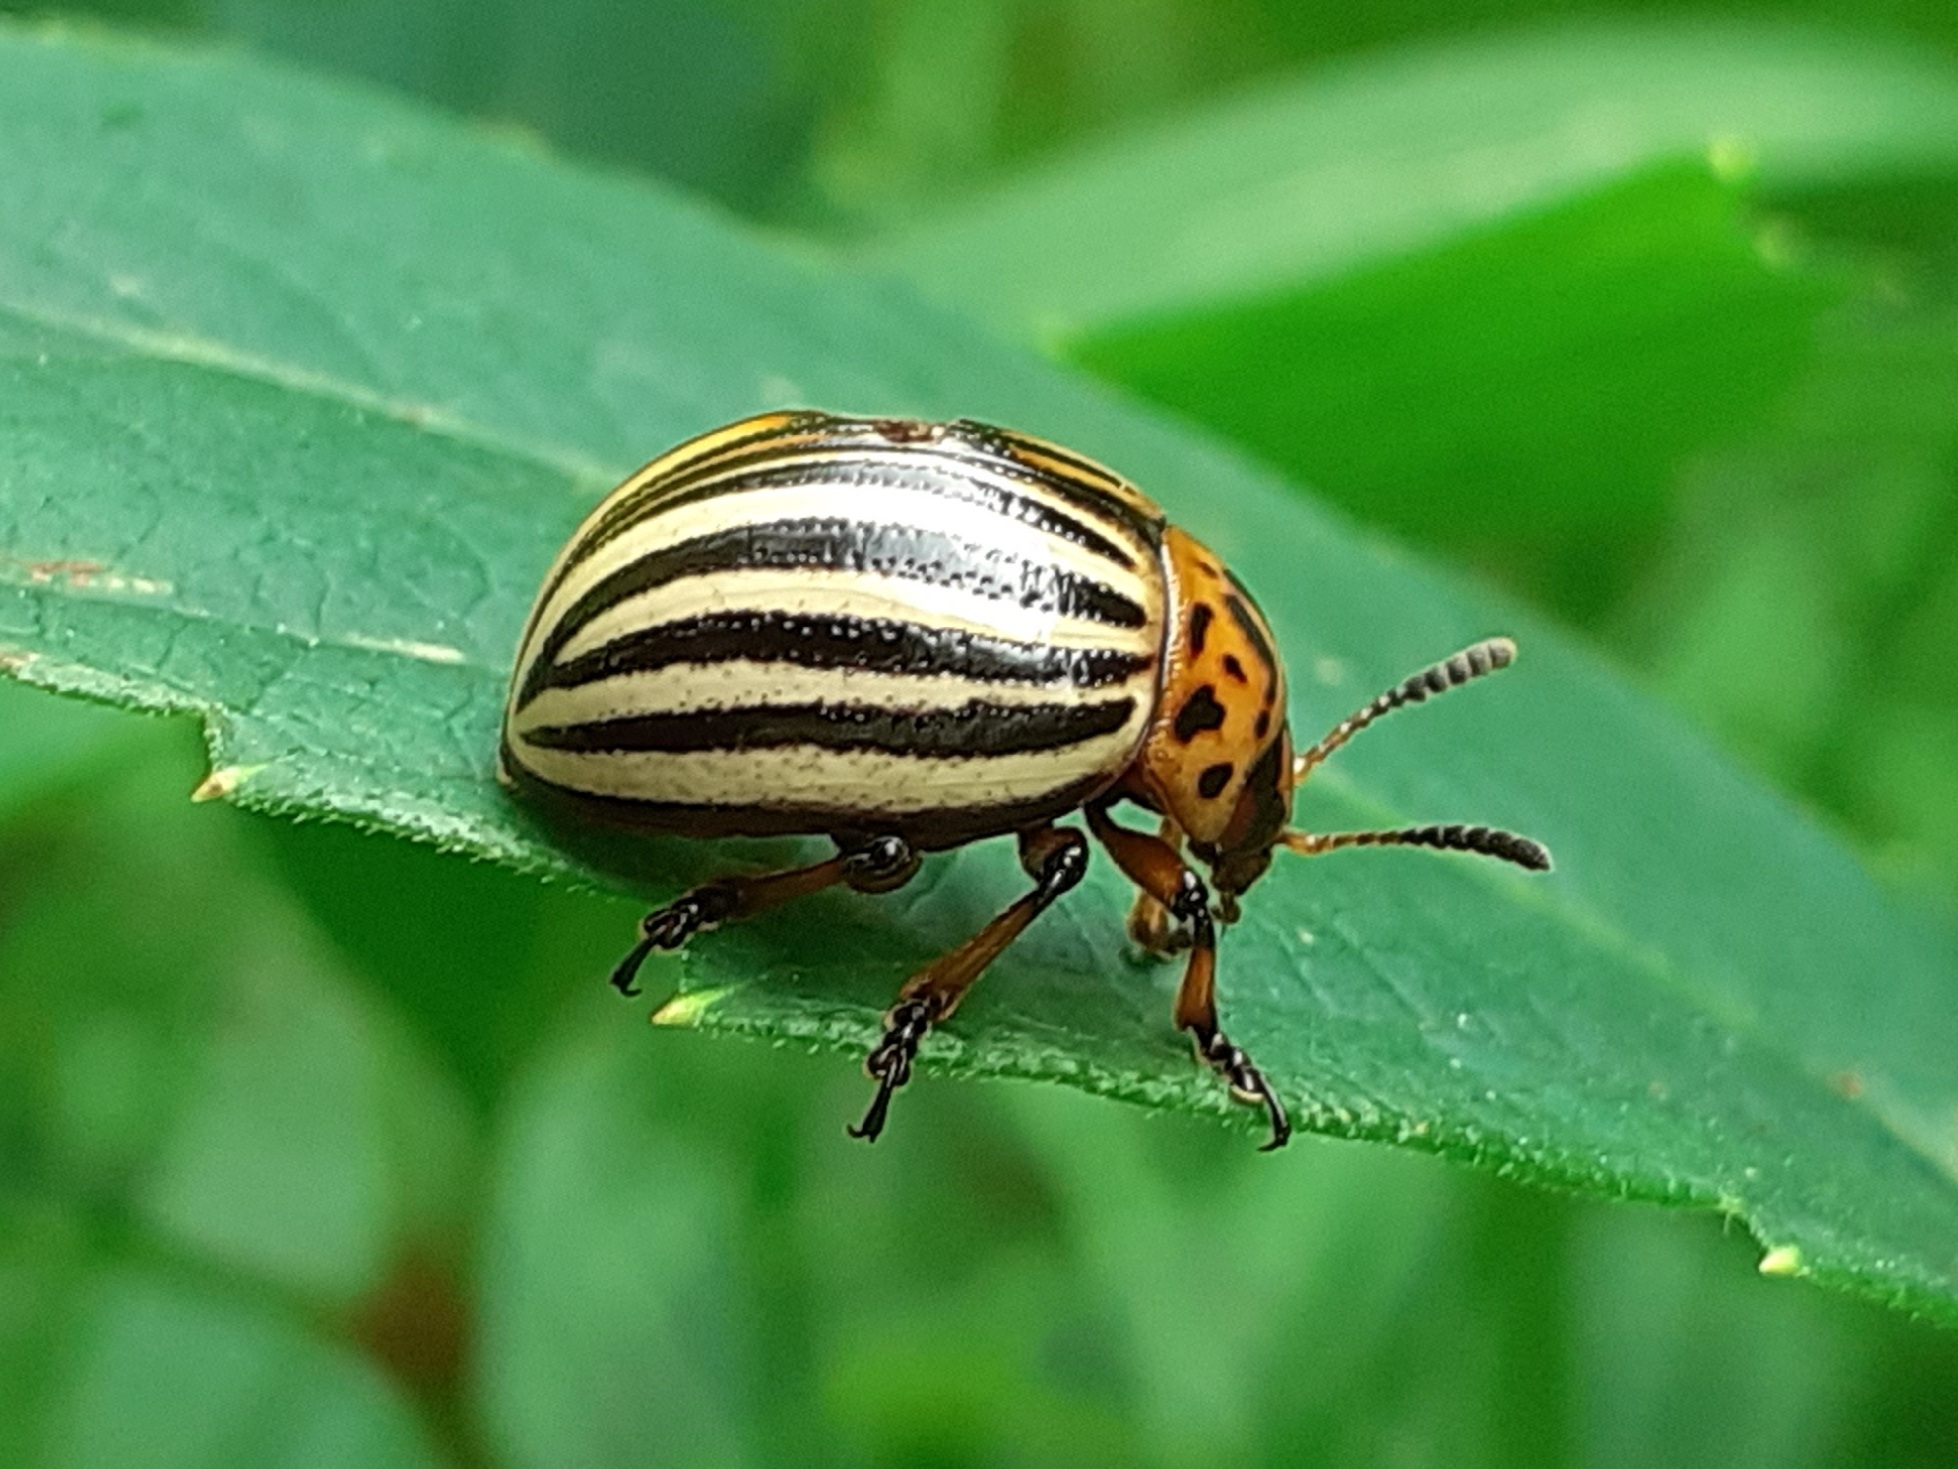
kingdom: Animalia
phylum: Arthropoda
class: Insecta
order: Coleoptera
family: Chrysomelidae
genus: Leptinotarsa
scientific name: Leptinotarsa decemlineata
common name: Colorado potato beetle
